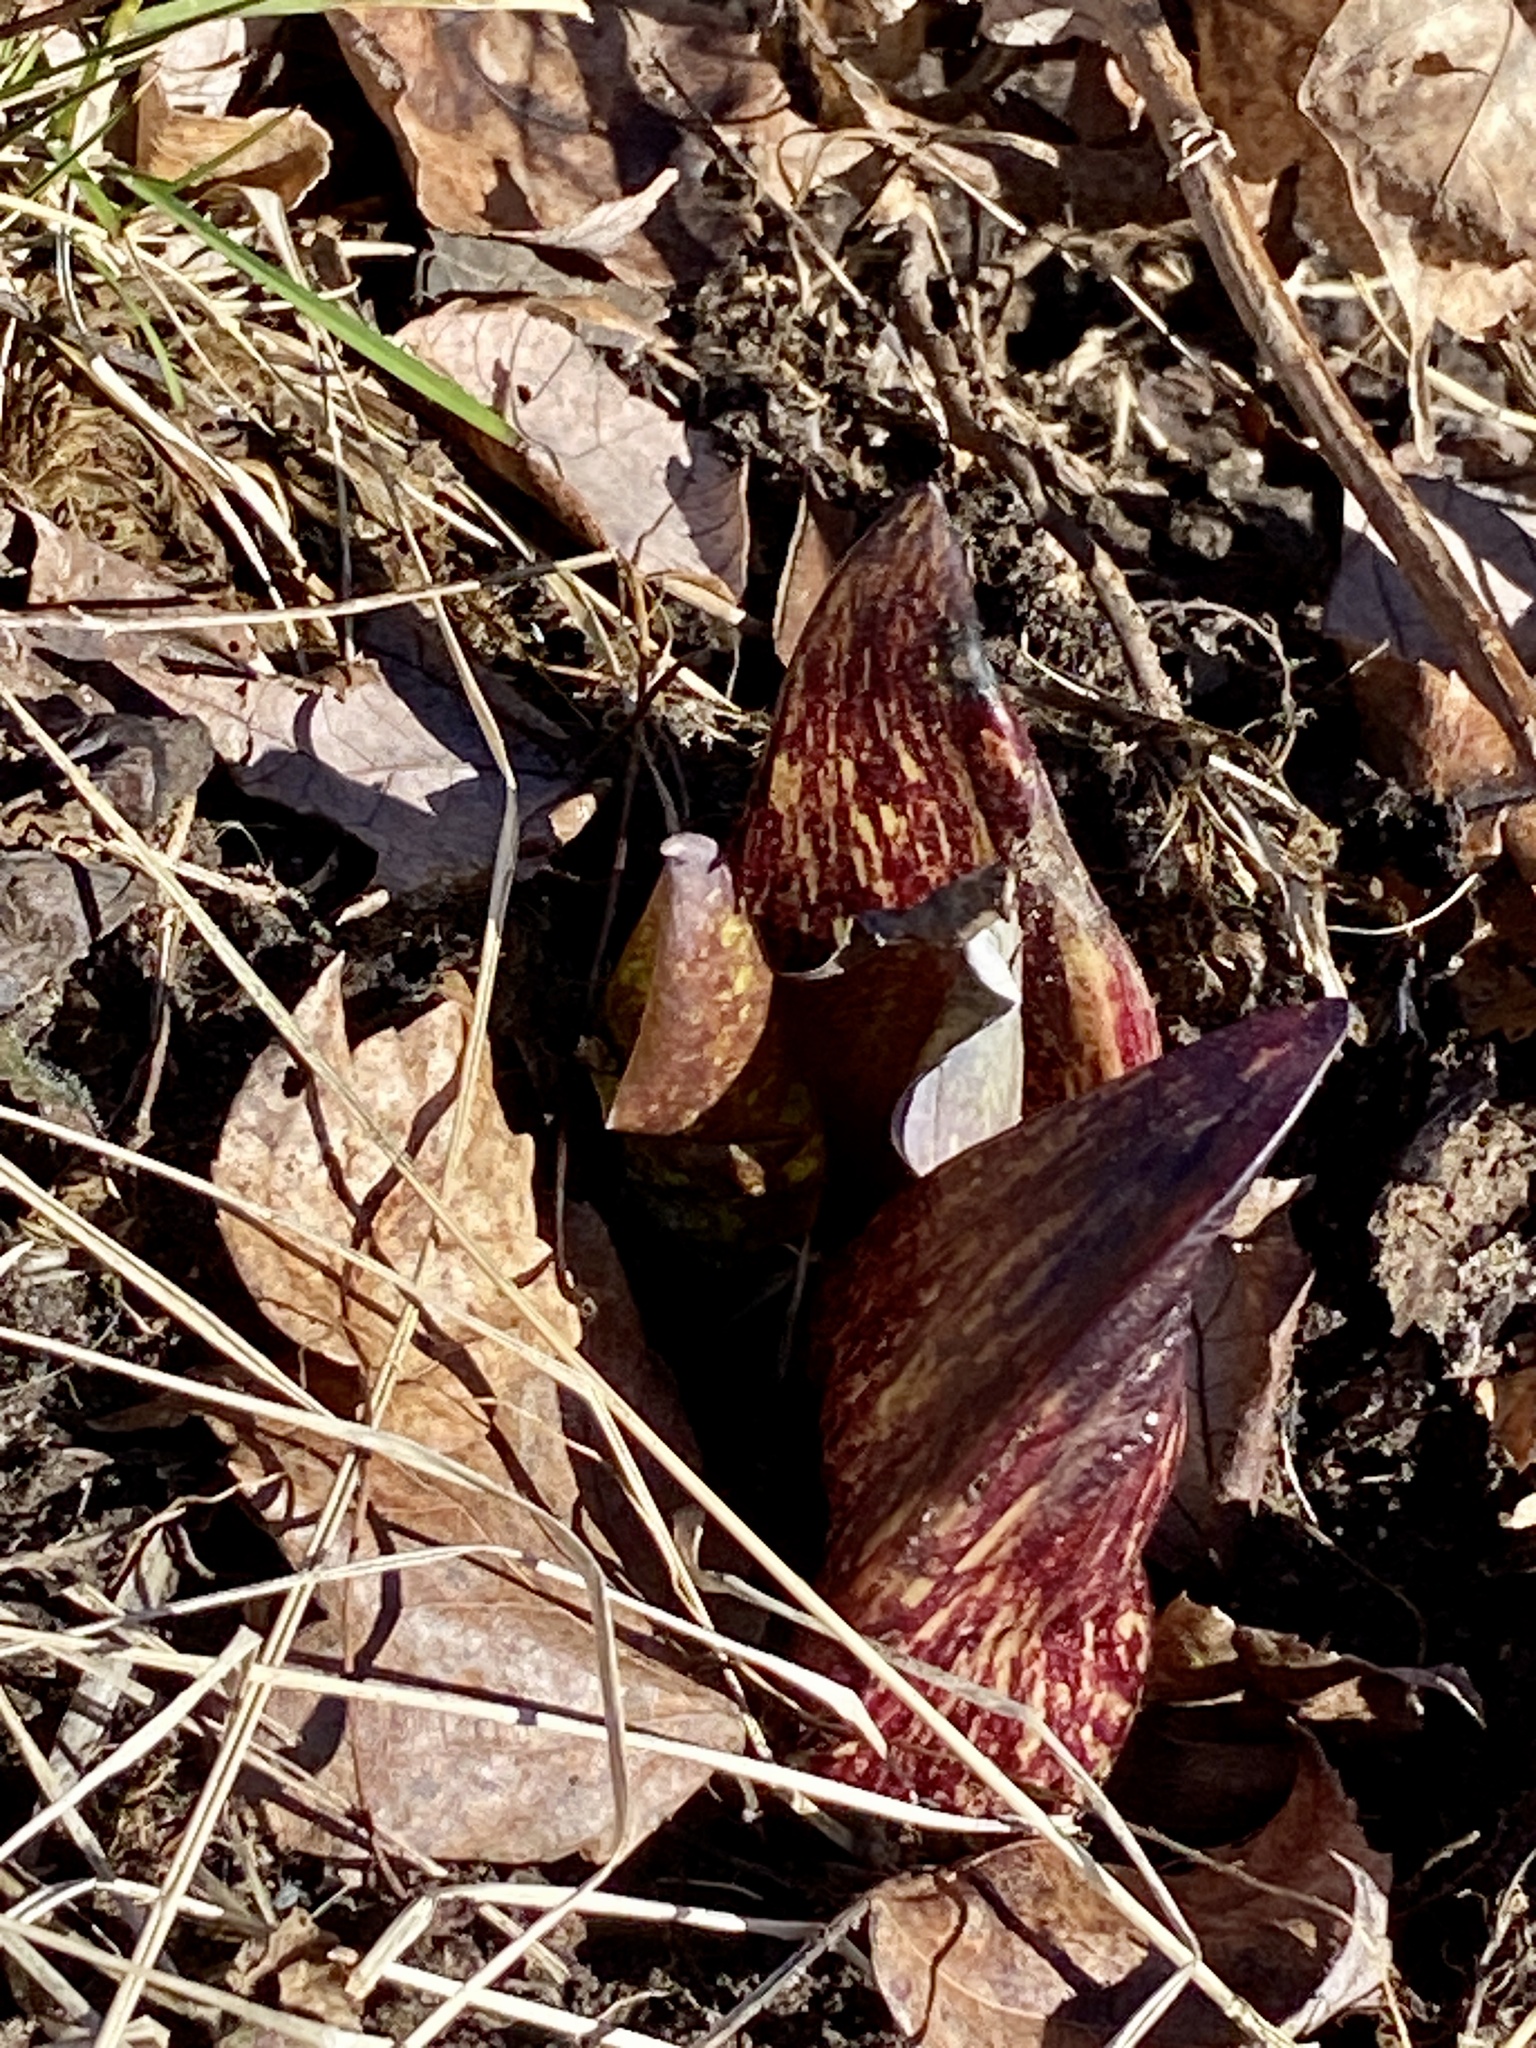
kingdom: Plantae
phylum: Tracheophyta
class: Liliopsida
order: Alismatales
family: Araceae
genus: Symplocarpus
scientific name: Symplocarpus foetidus
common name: Eastern skunk cabbage
